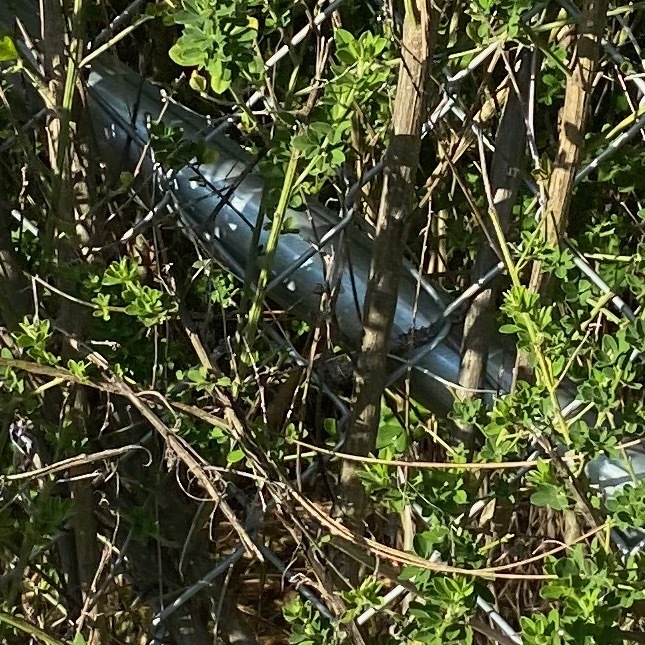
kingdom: Plantae
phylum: Tracheophyta
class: Magnoliopsida
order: Fabales
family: Fabaceae
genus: Genista
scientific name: Genista monspessulana
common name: Montpellier broom
